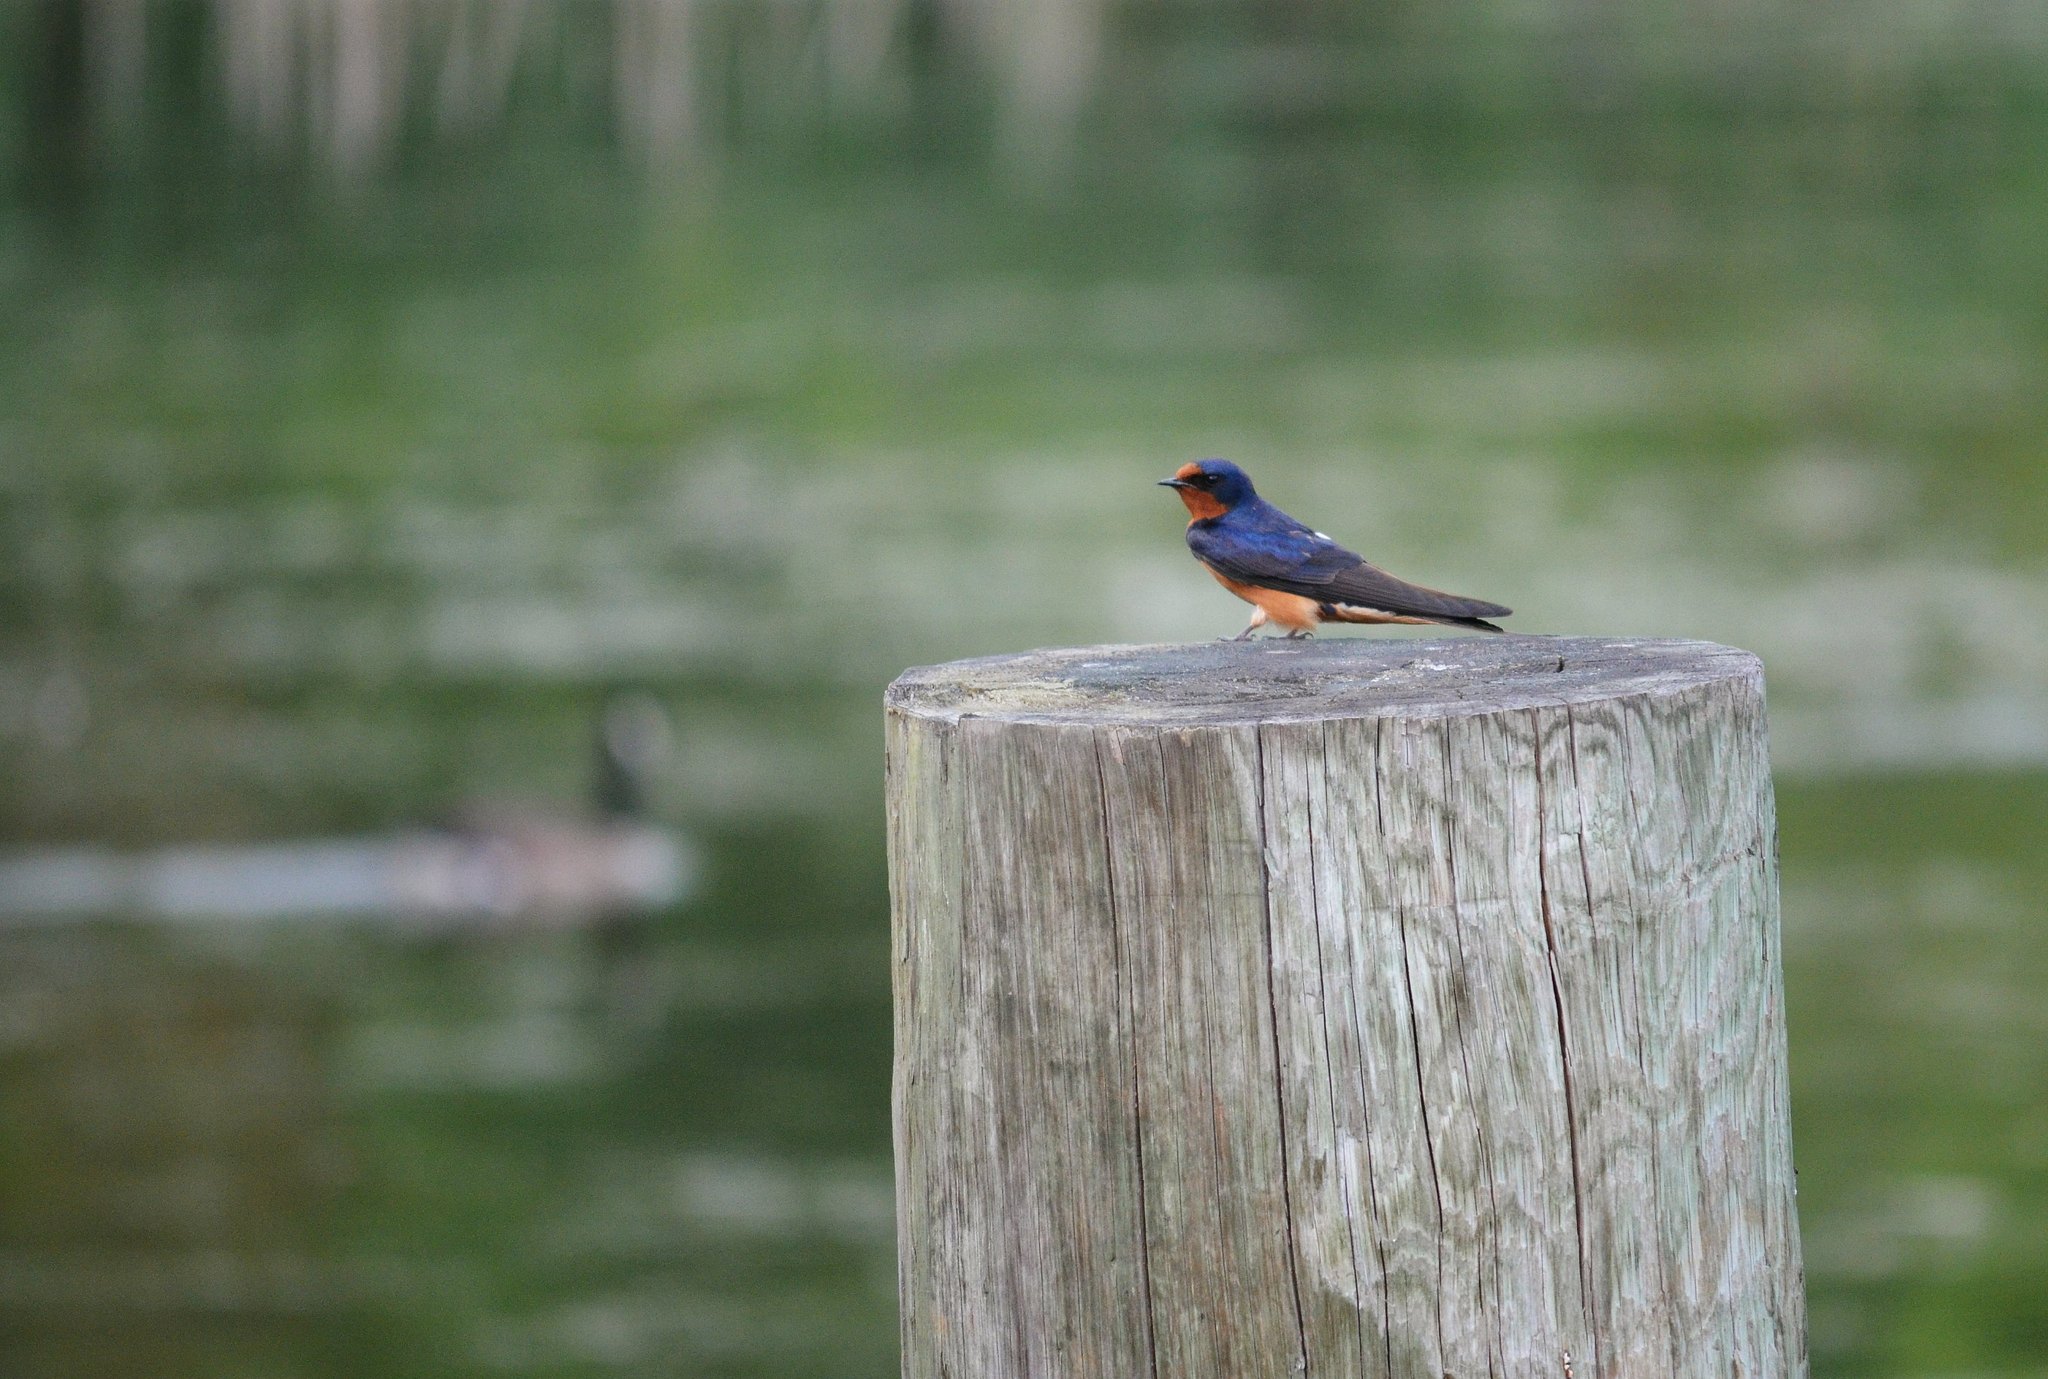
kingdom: Animalia
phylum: Chordata
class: Aves
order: Passeriformes
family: Hirundinidae
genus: Hirundo
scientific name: Hirundo rustica
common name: Barn swallow
